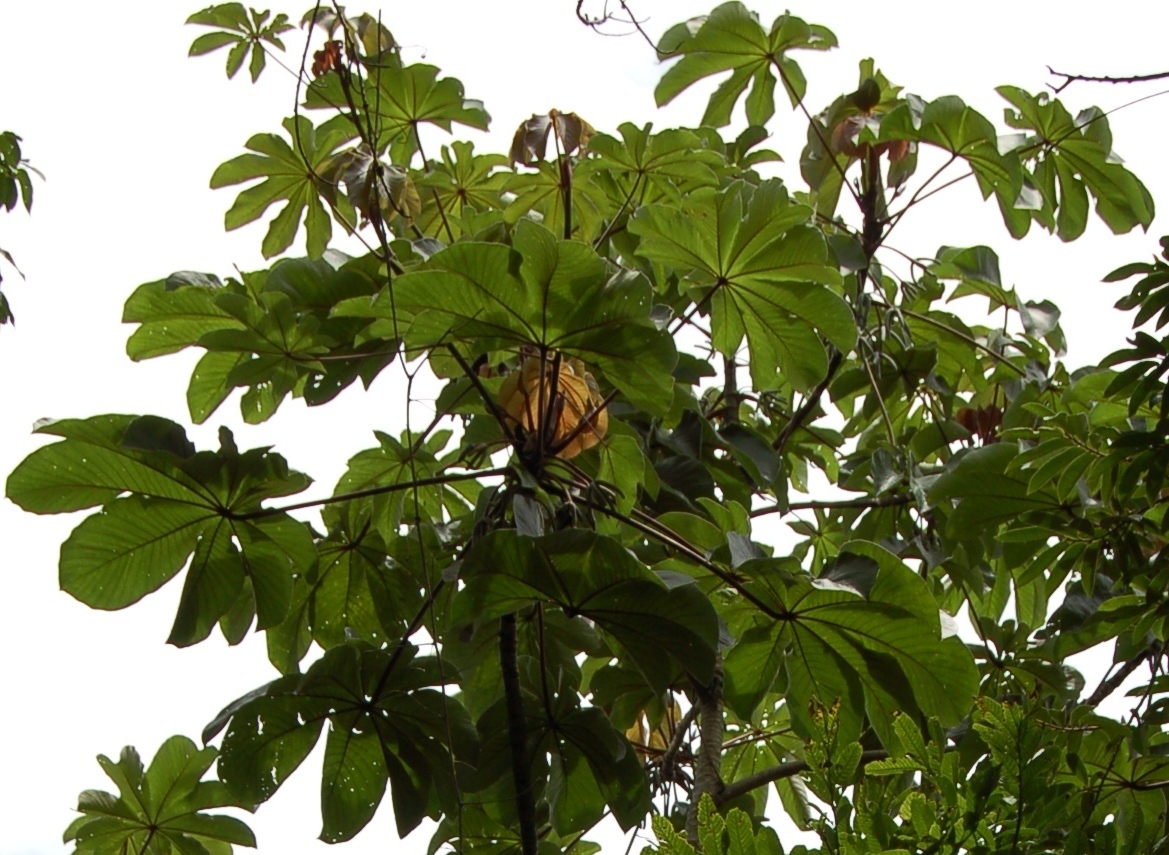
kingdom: Plantae
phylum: Tracheophyta
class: Magnoliopsida
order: Rosales
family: Urticaceae
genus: Cecropia
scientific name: Cecropia peltata
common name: Trumpet-tree
